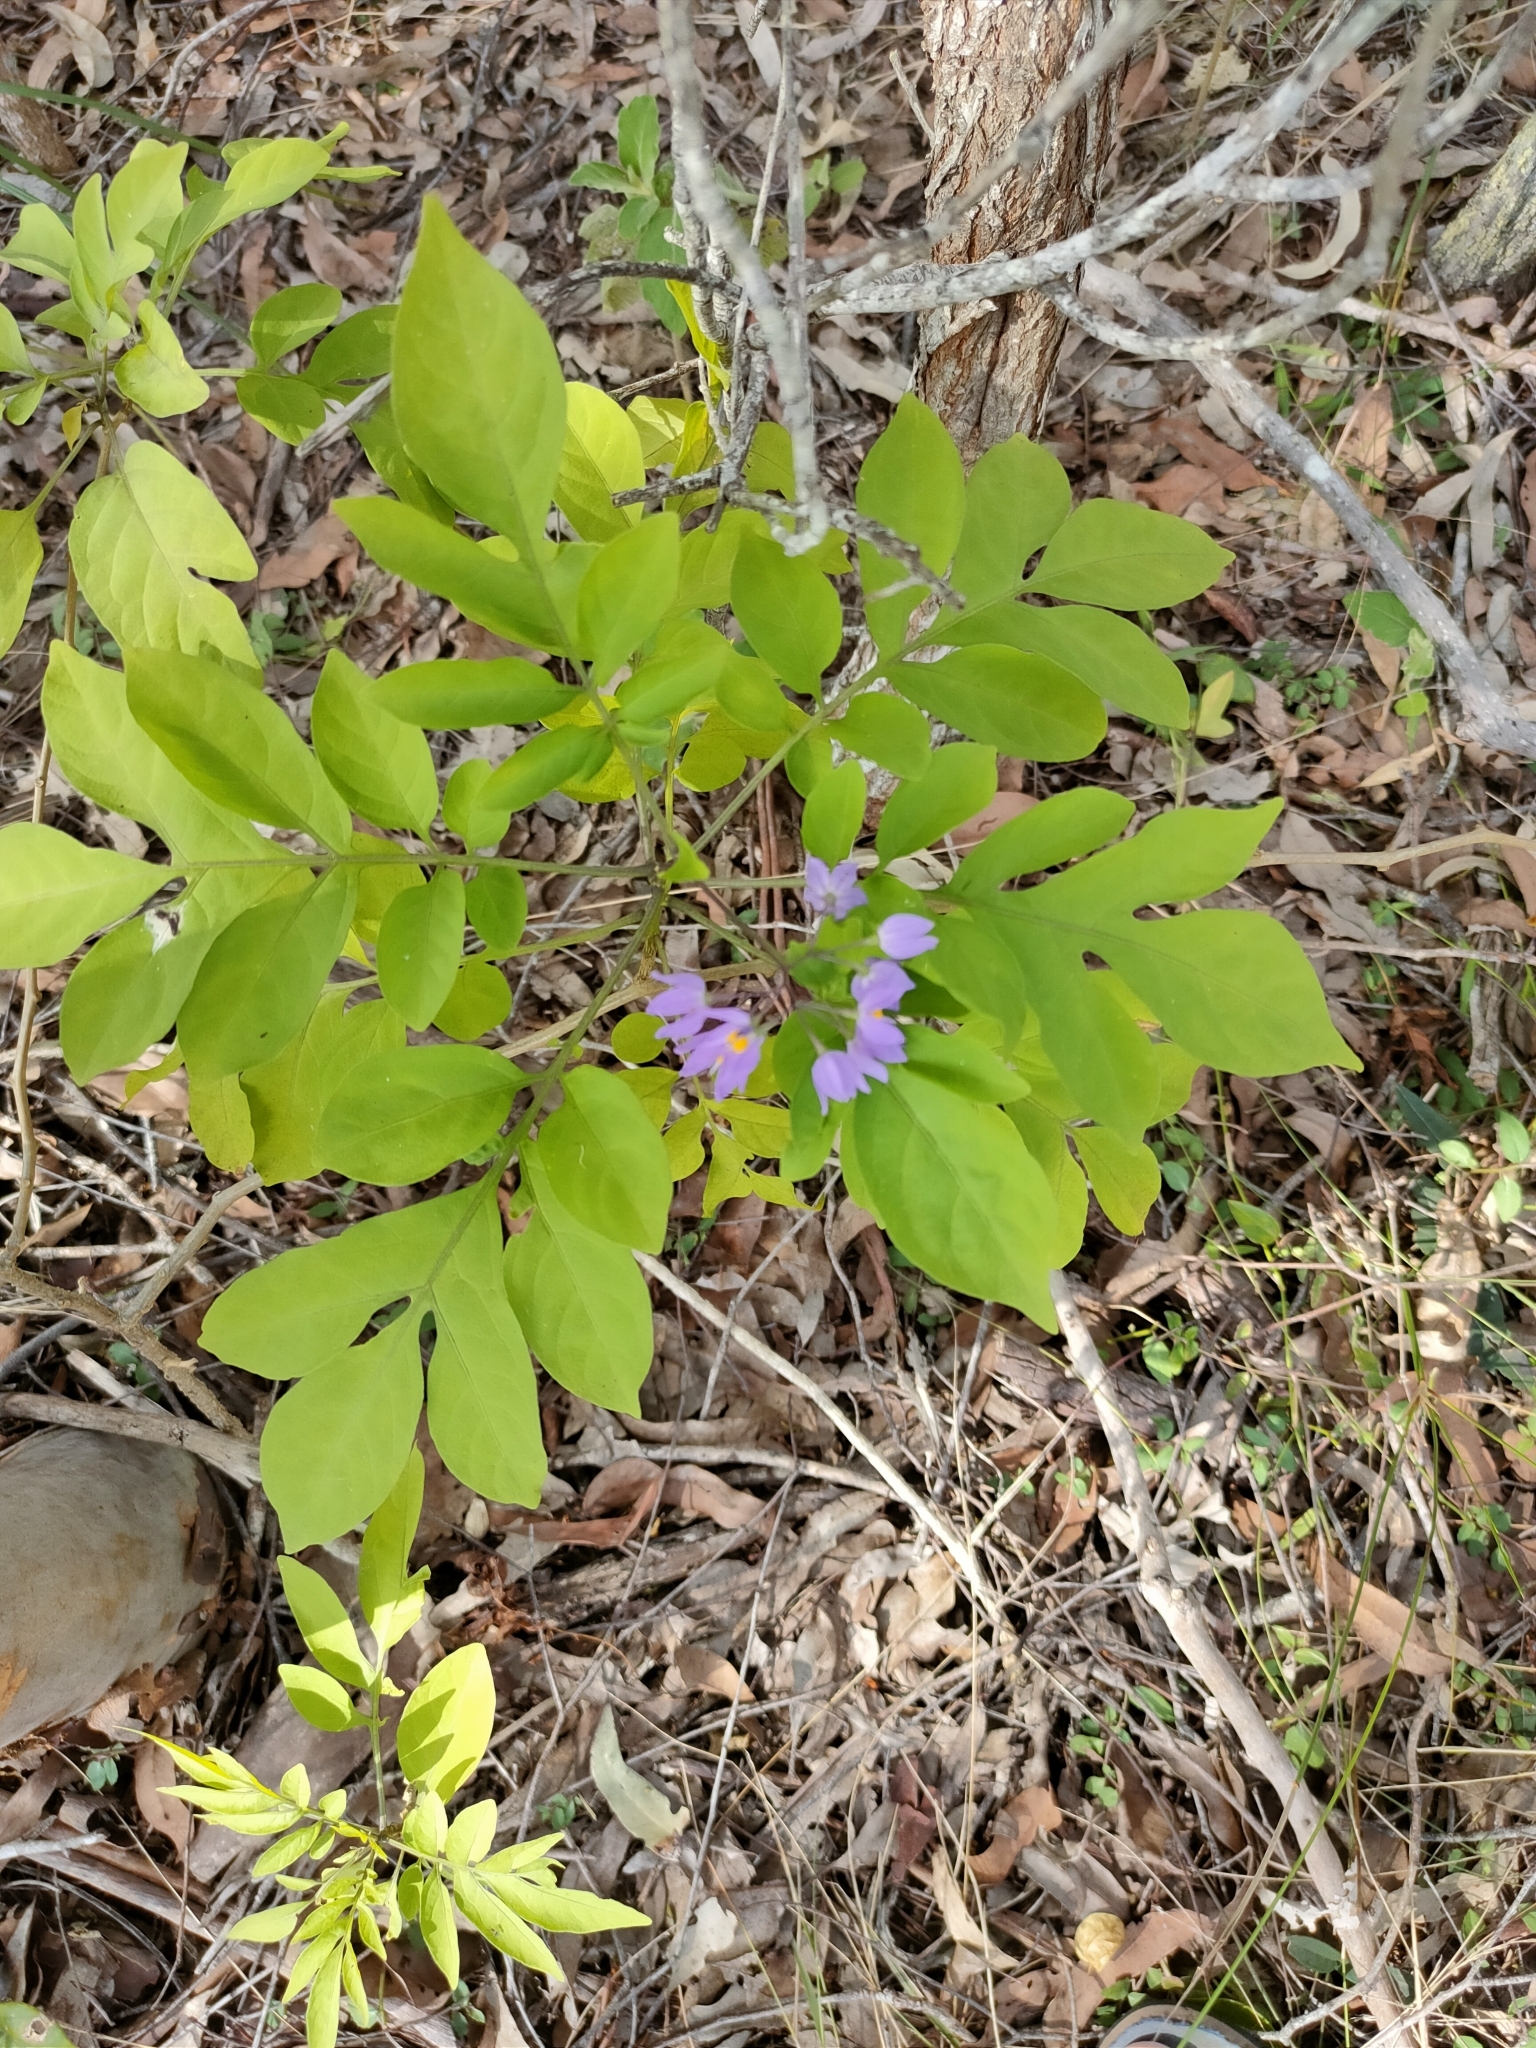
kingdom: Plantae
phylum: Tracheophyta
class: Magnoliopsida
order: Solanales
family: Solanaceae
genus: Solanum
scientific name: Solanum seaforthianum
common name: Brazilian nightshade
